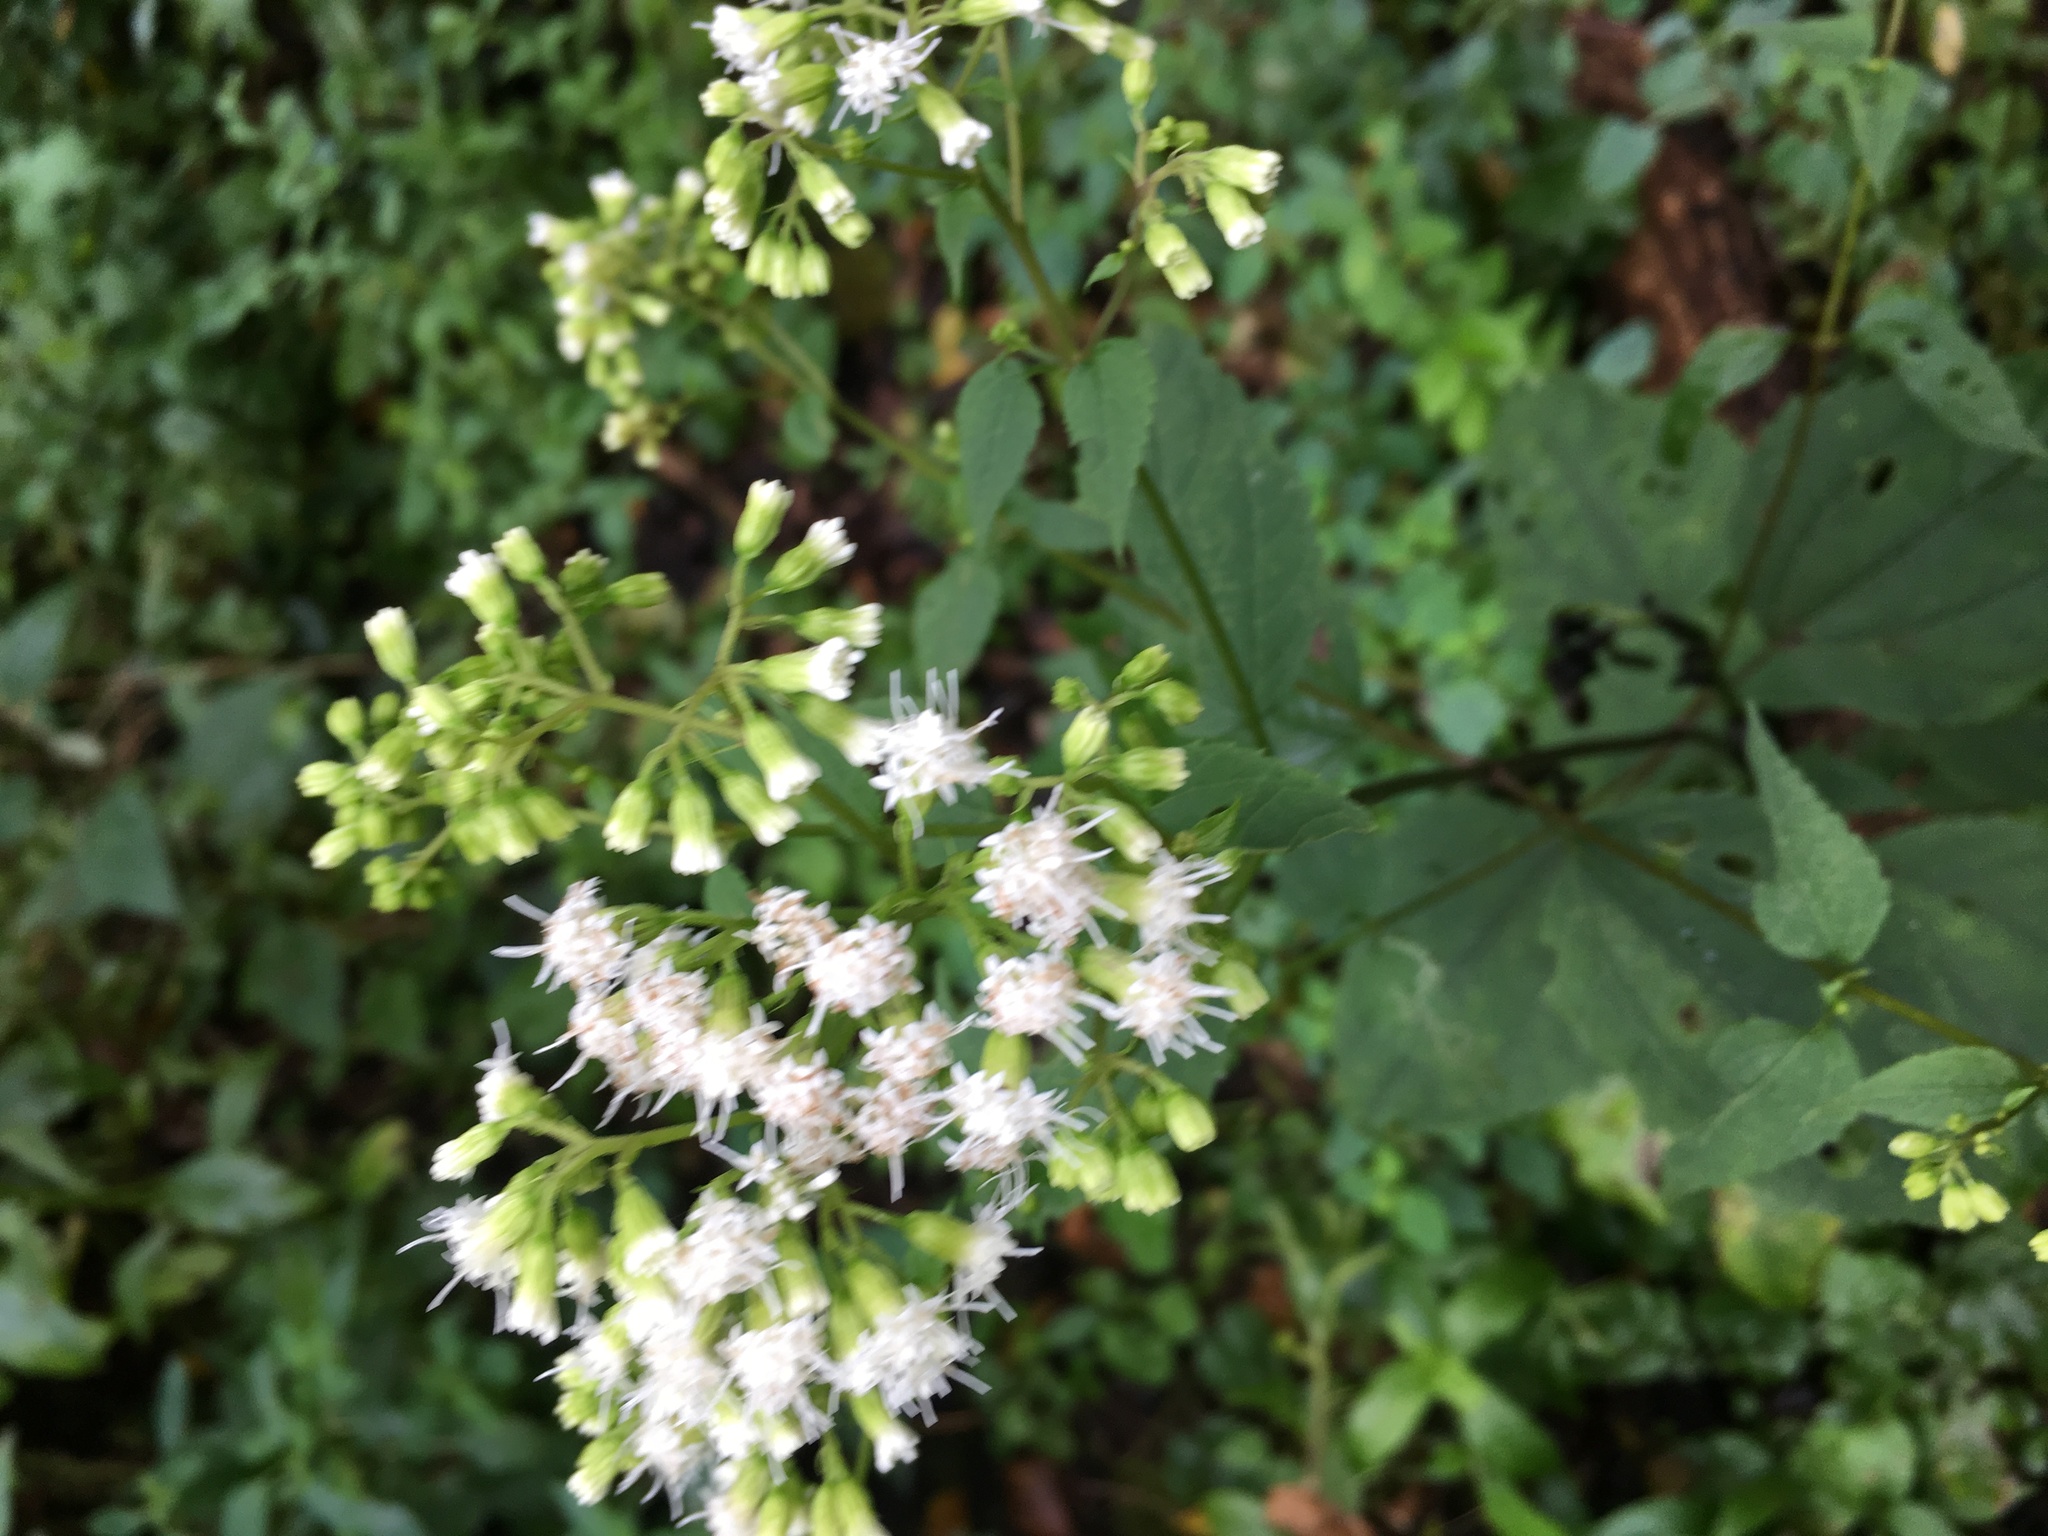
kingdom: Plantae
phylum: Tracheophyta
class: Magnoliopsida
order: Asterales
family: Asteraceae
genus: Ageratina
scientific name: Ageratina altissima
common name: White snakeroot
